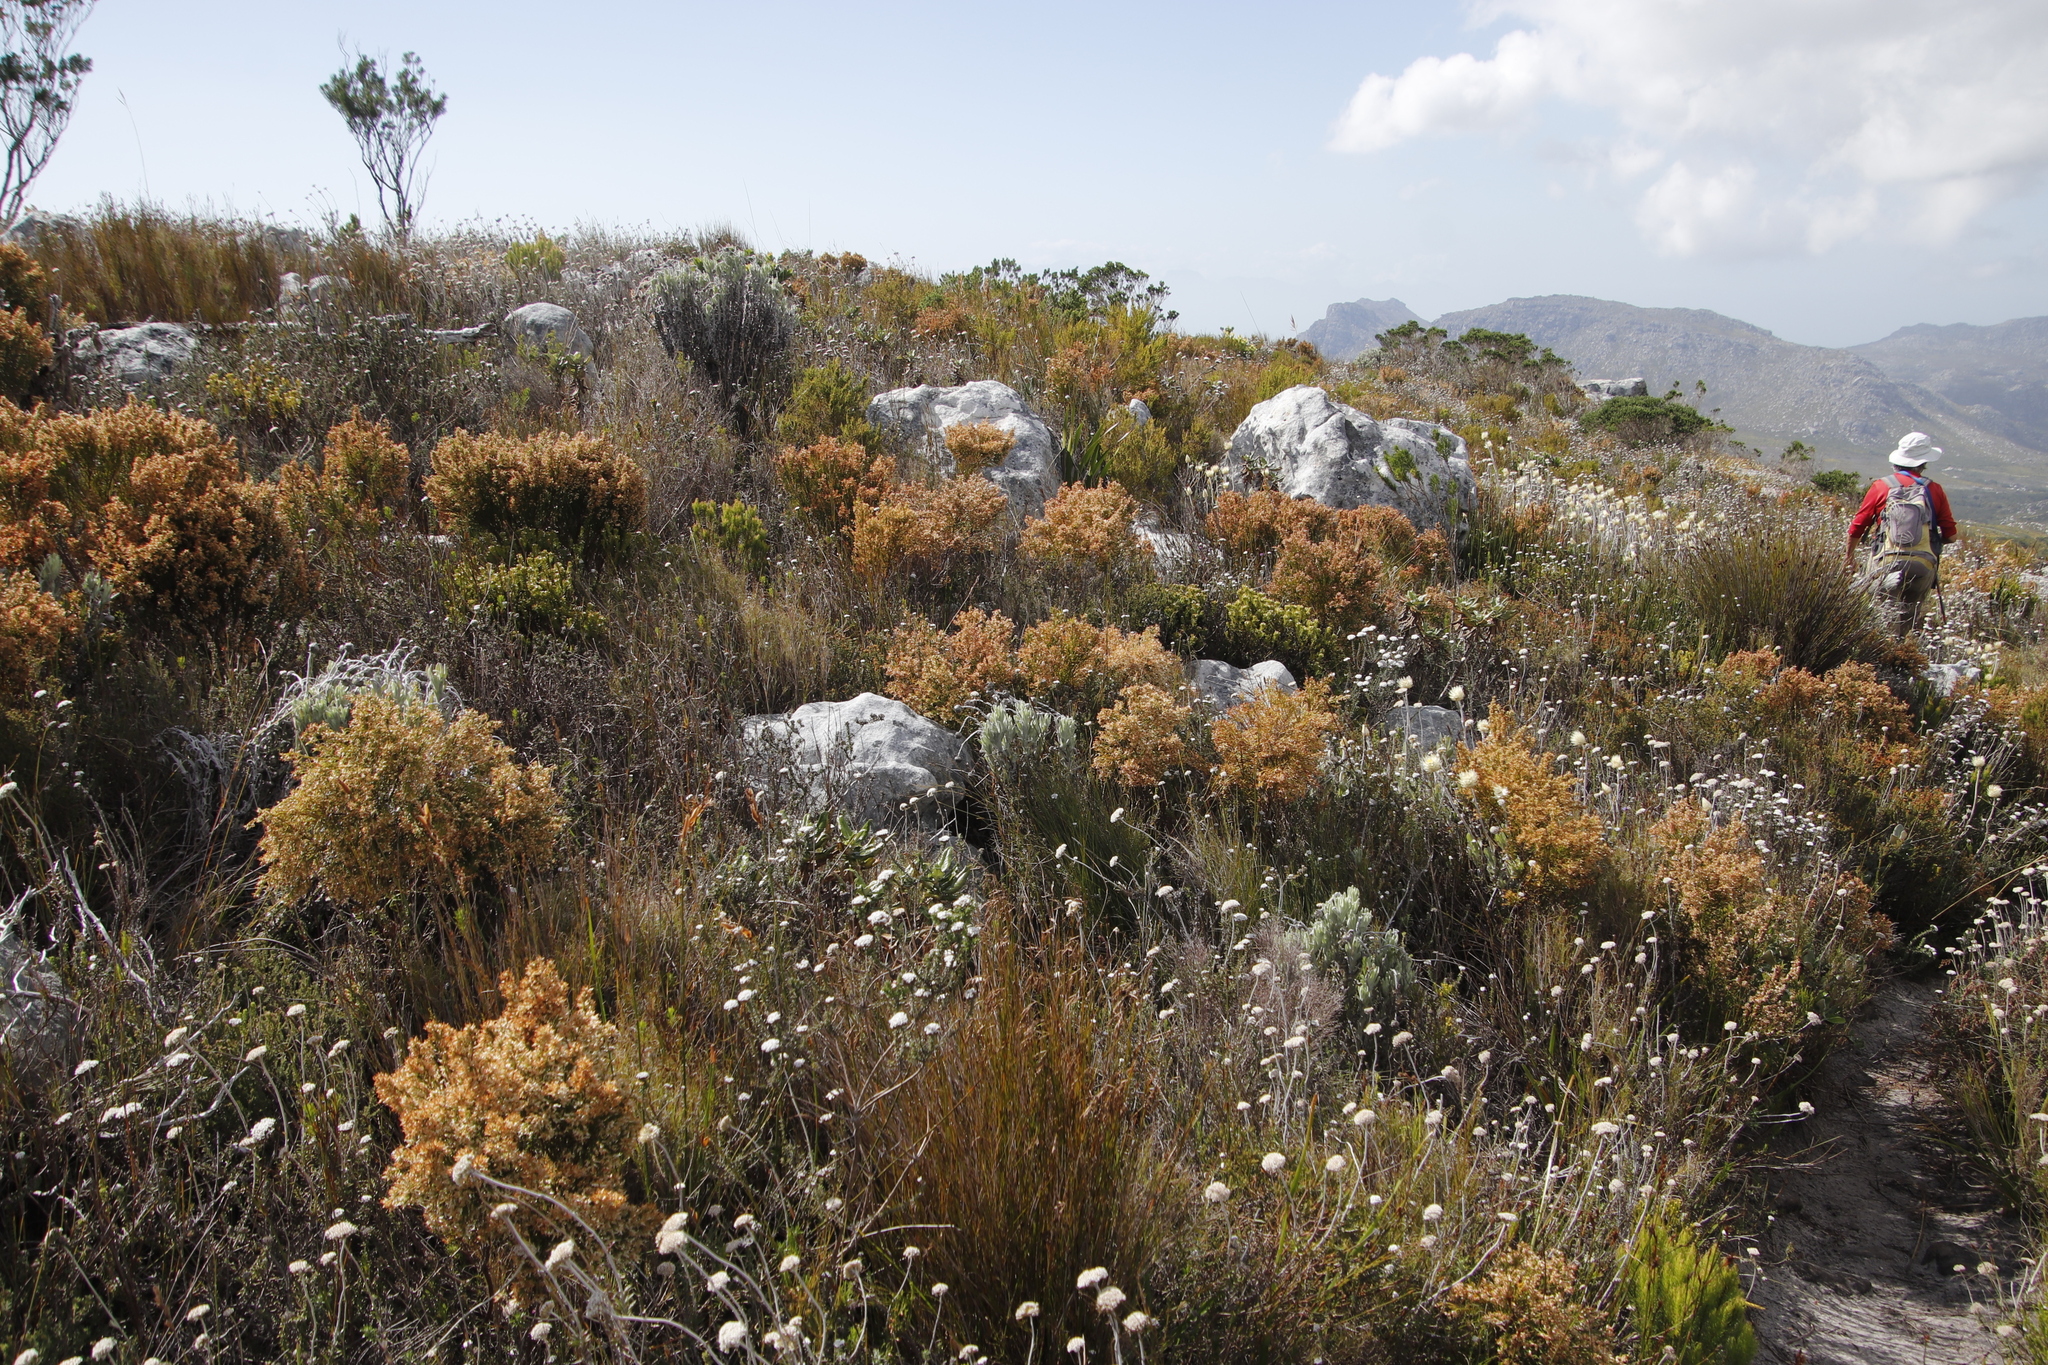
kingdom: Plantae
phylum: Tracheophyta
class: Magnoliopsida
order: Ericales
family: Ericaceae
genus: Erica
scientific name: Erica lutea
